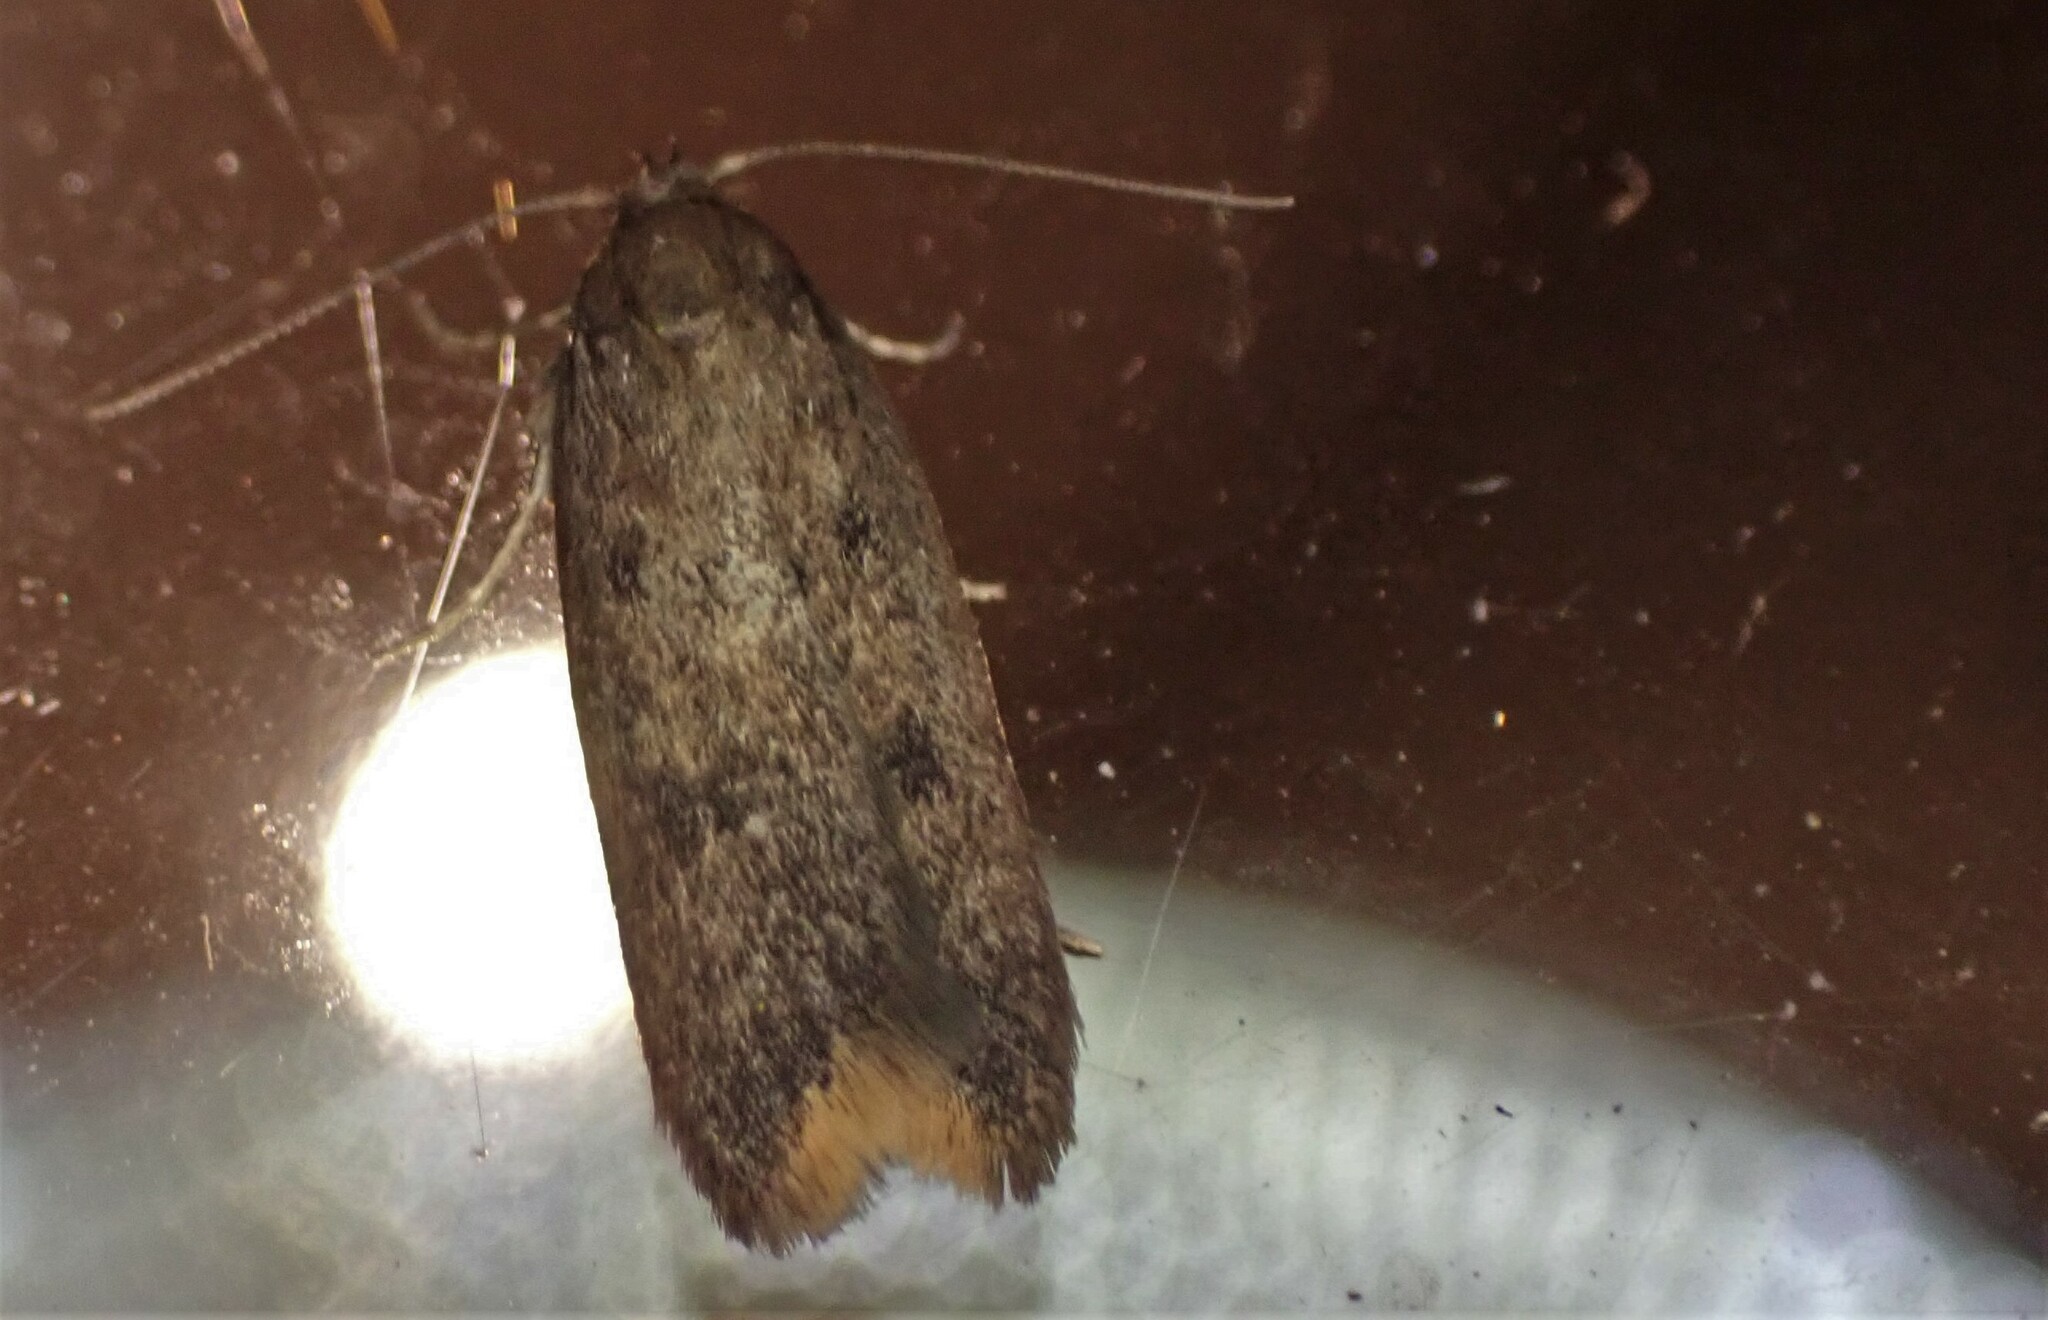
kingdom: Animalia
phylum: Arthropoda
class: Insecta
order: Lepidoptera
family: Oecophoridae
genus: Tachystola
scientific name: Tachystola acroxantha
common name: Ruddy streak
